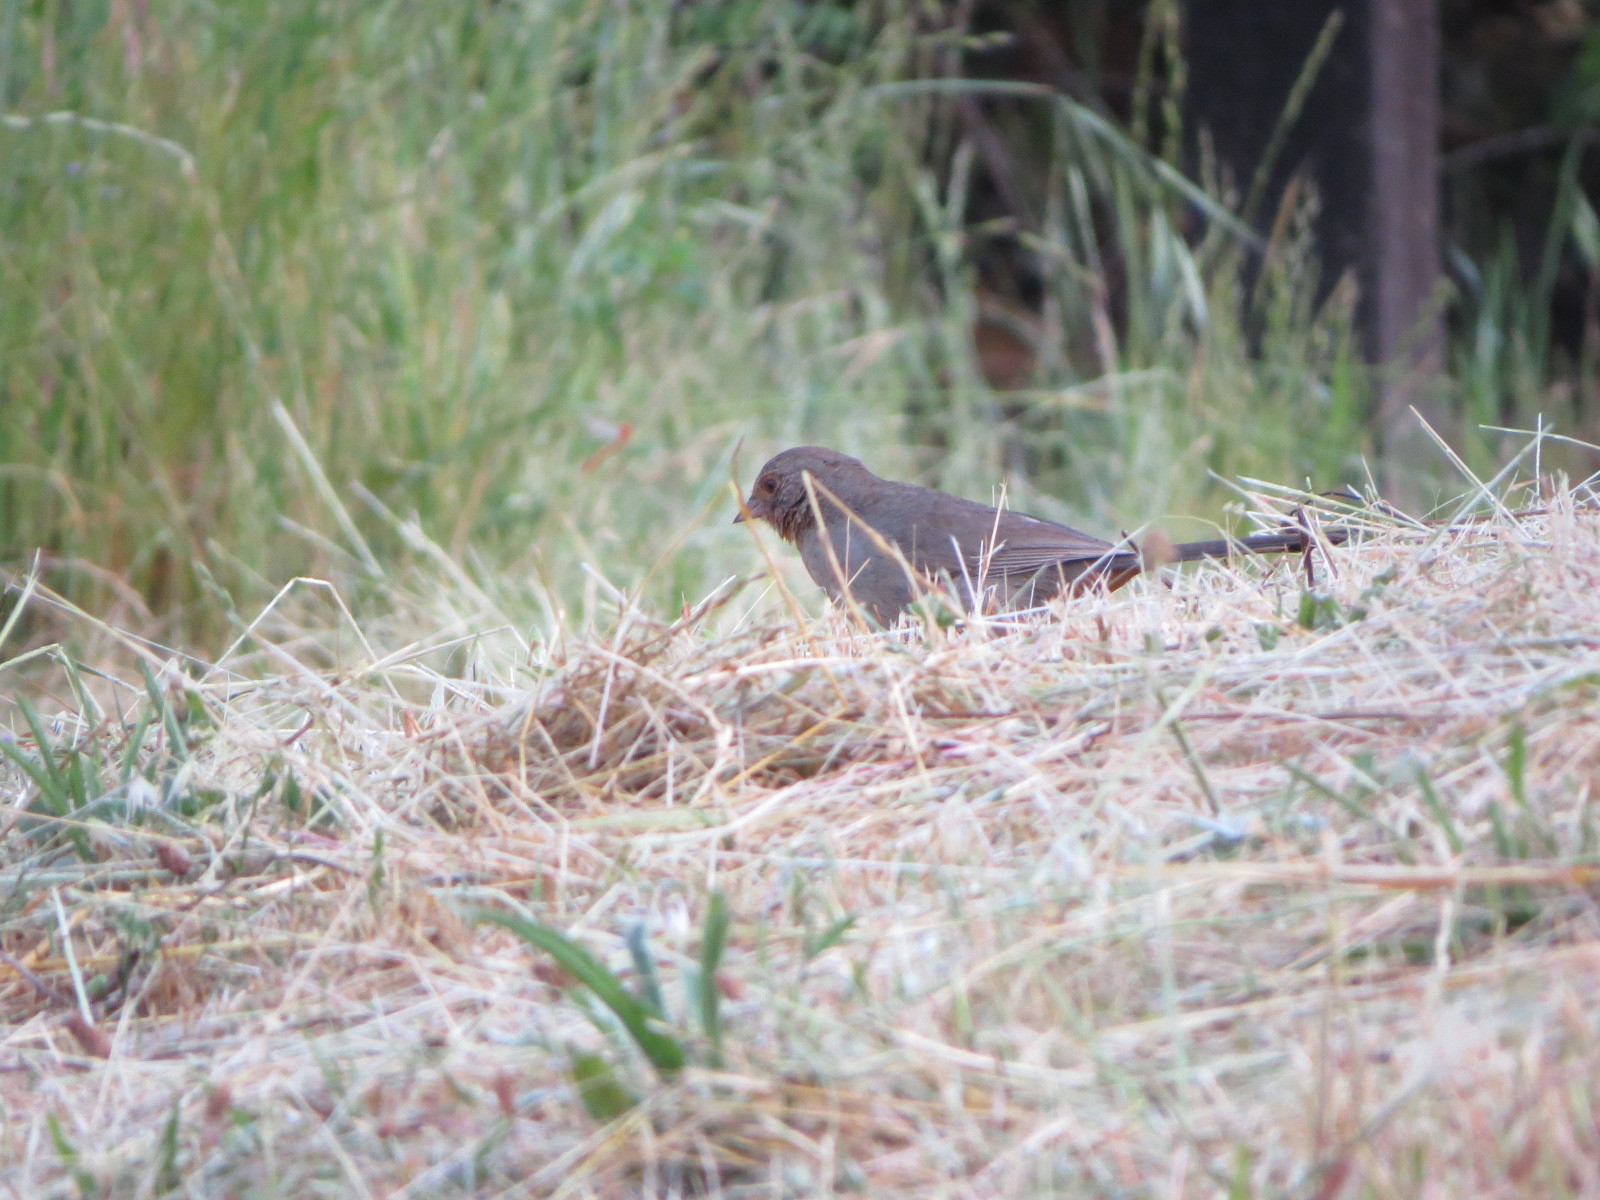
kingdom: Animalia
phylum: Chordata
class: Aves
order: Passeriformes
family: Passerellidae
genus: Melozone
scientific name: Melozone crissalis
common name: California towhee
